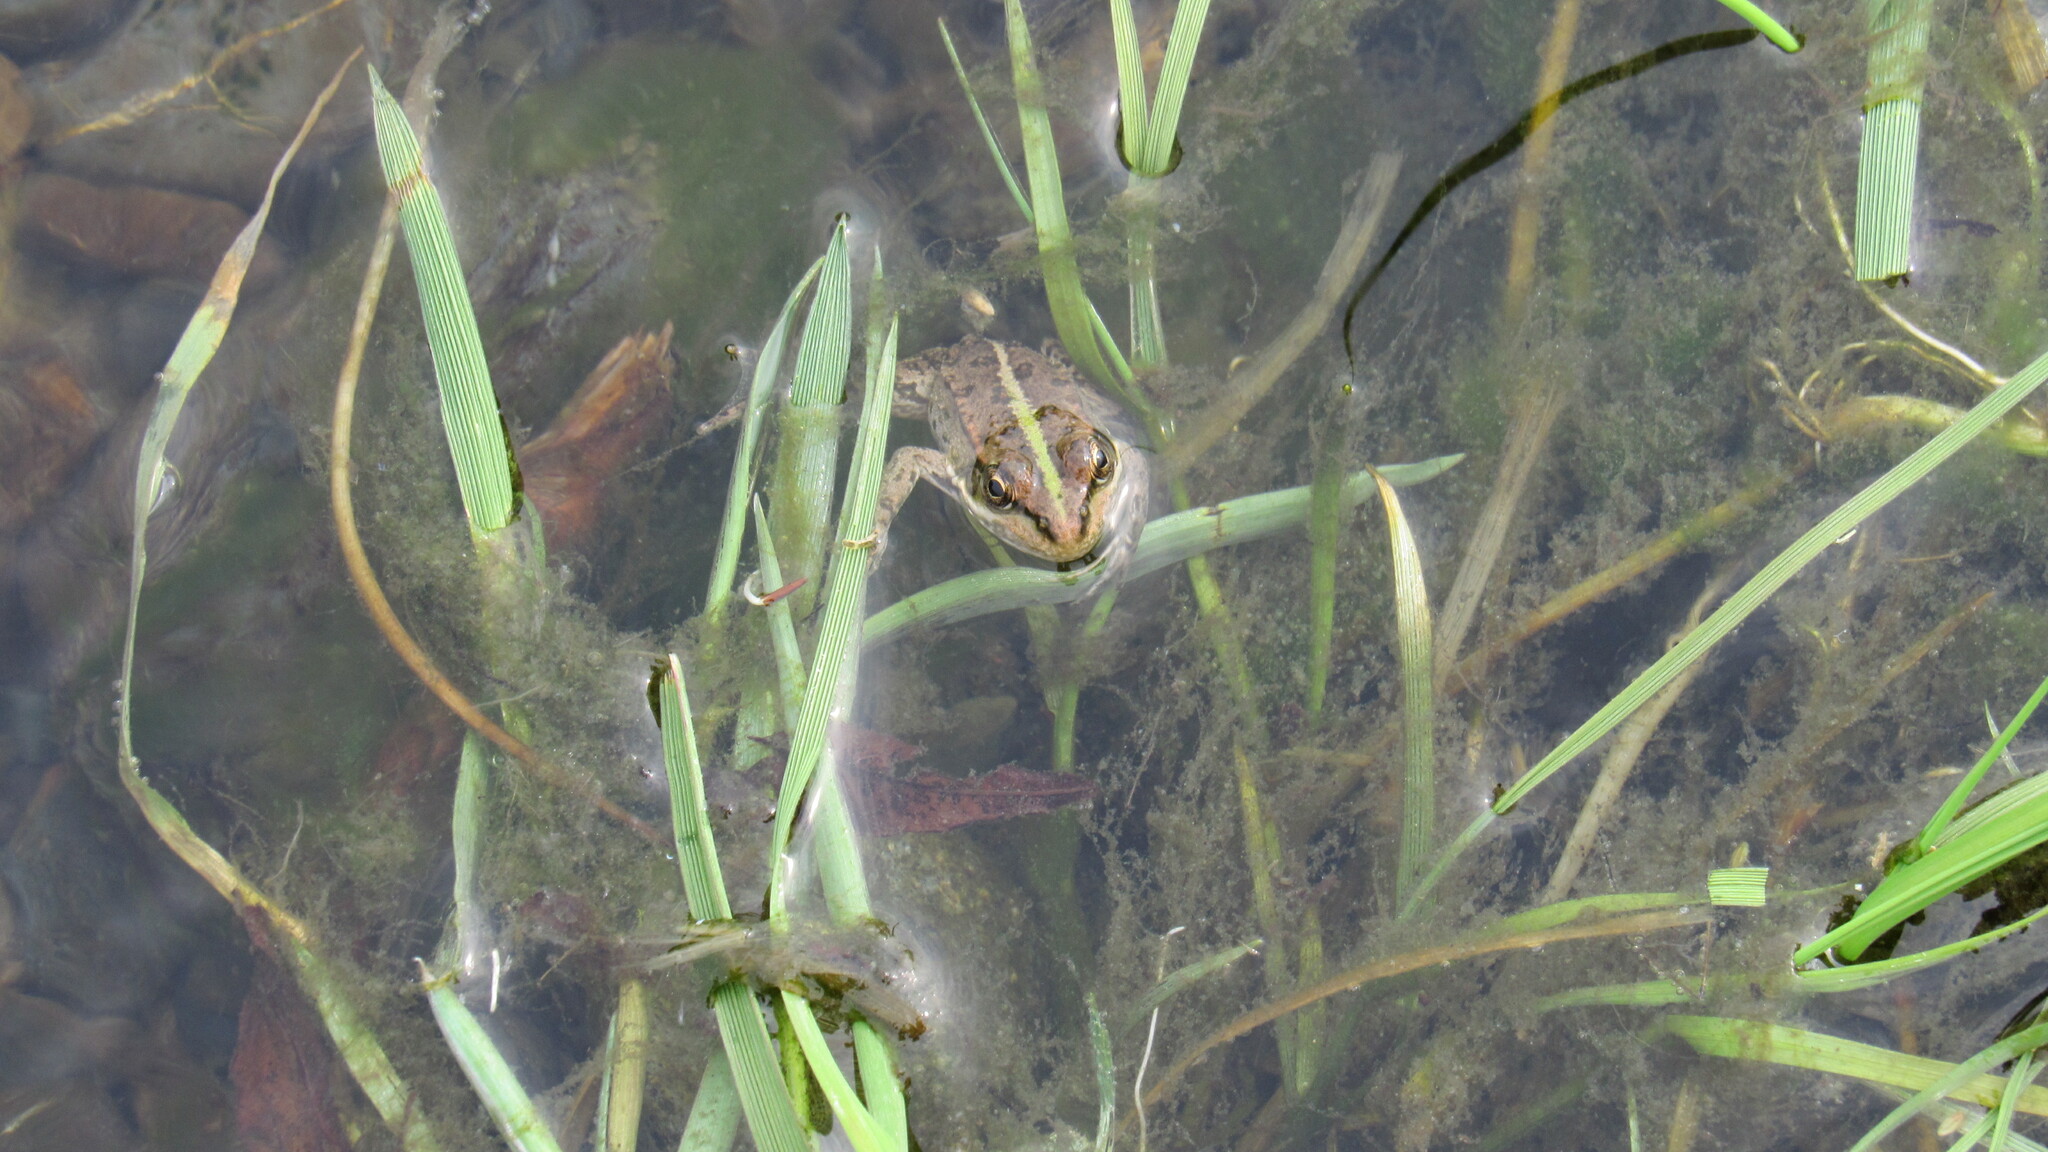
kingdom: Animalia
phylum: Chordata
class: Amphibia
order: Anura
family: Ranidae
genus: Pelophylax
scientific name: Pelophylax ridibundus
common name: Marsh frog
